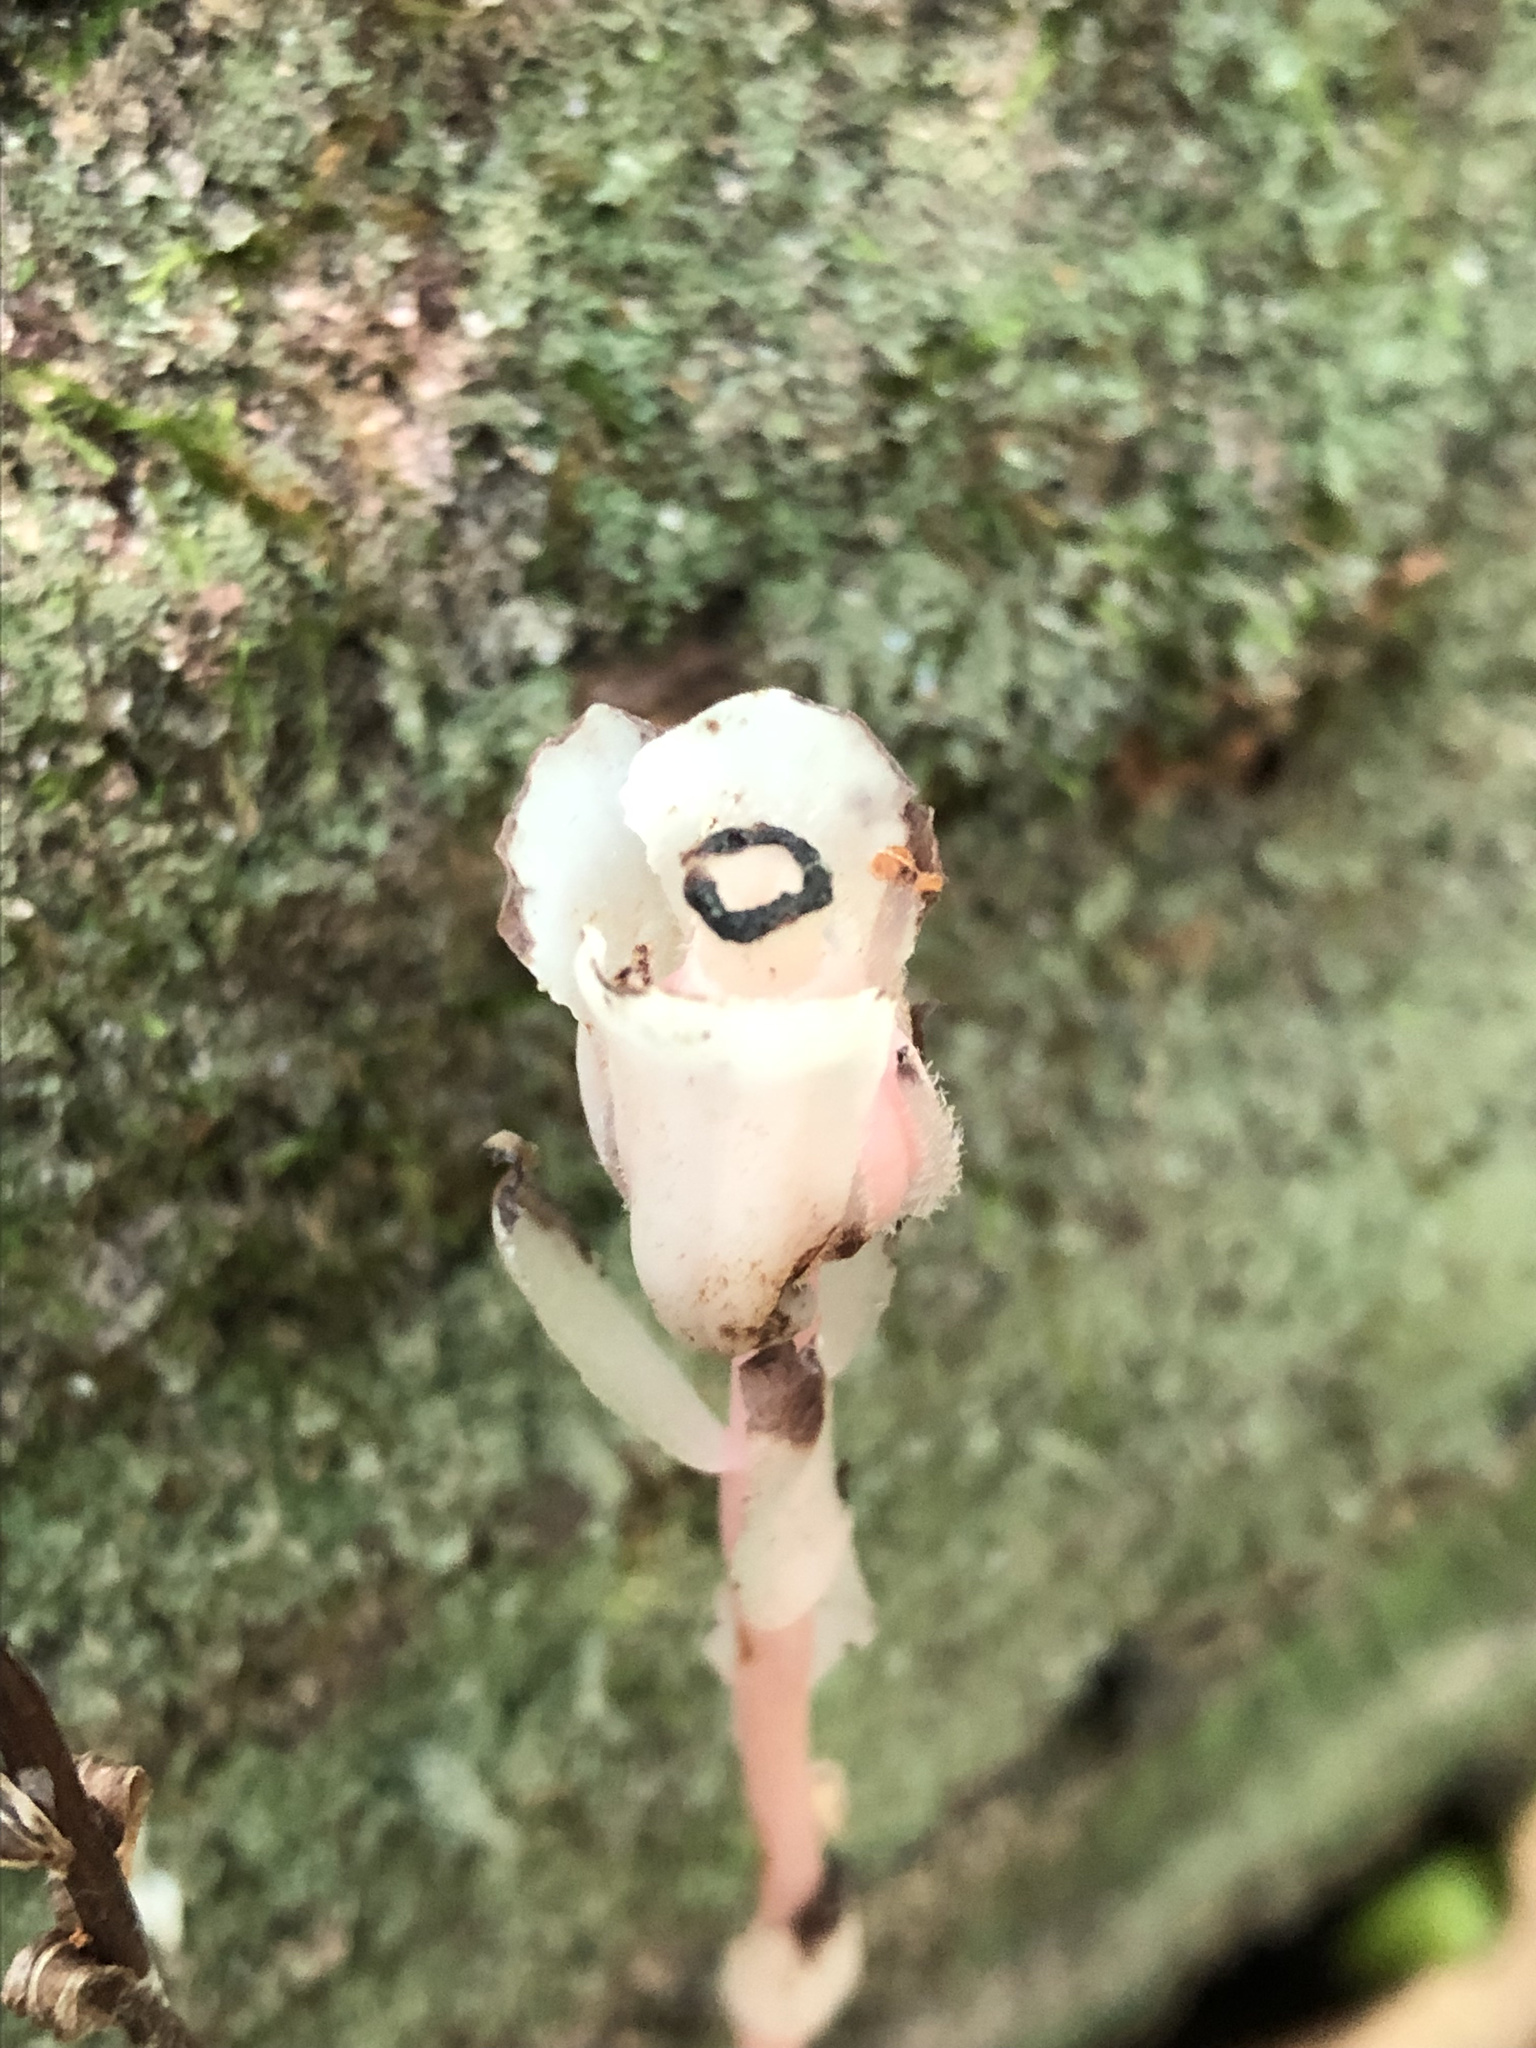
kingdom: Plantae
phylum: Tracheophyta
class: Magnoliopsida
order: Ericales
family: Ericaceae
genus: Monotropa
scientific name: Monotropa uniflora
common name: Convulsion root
